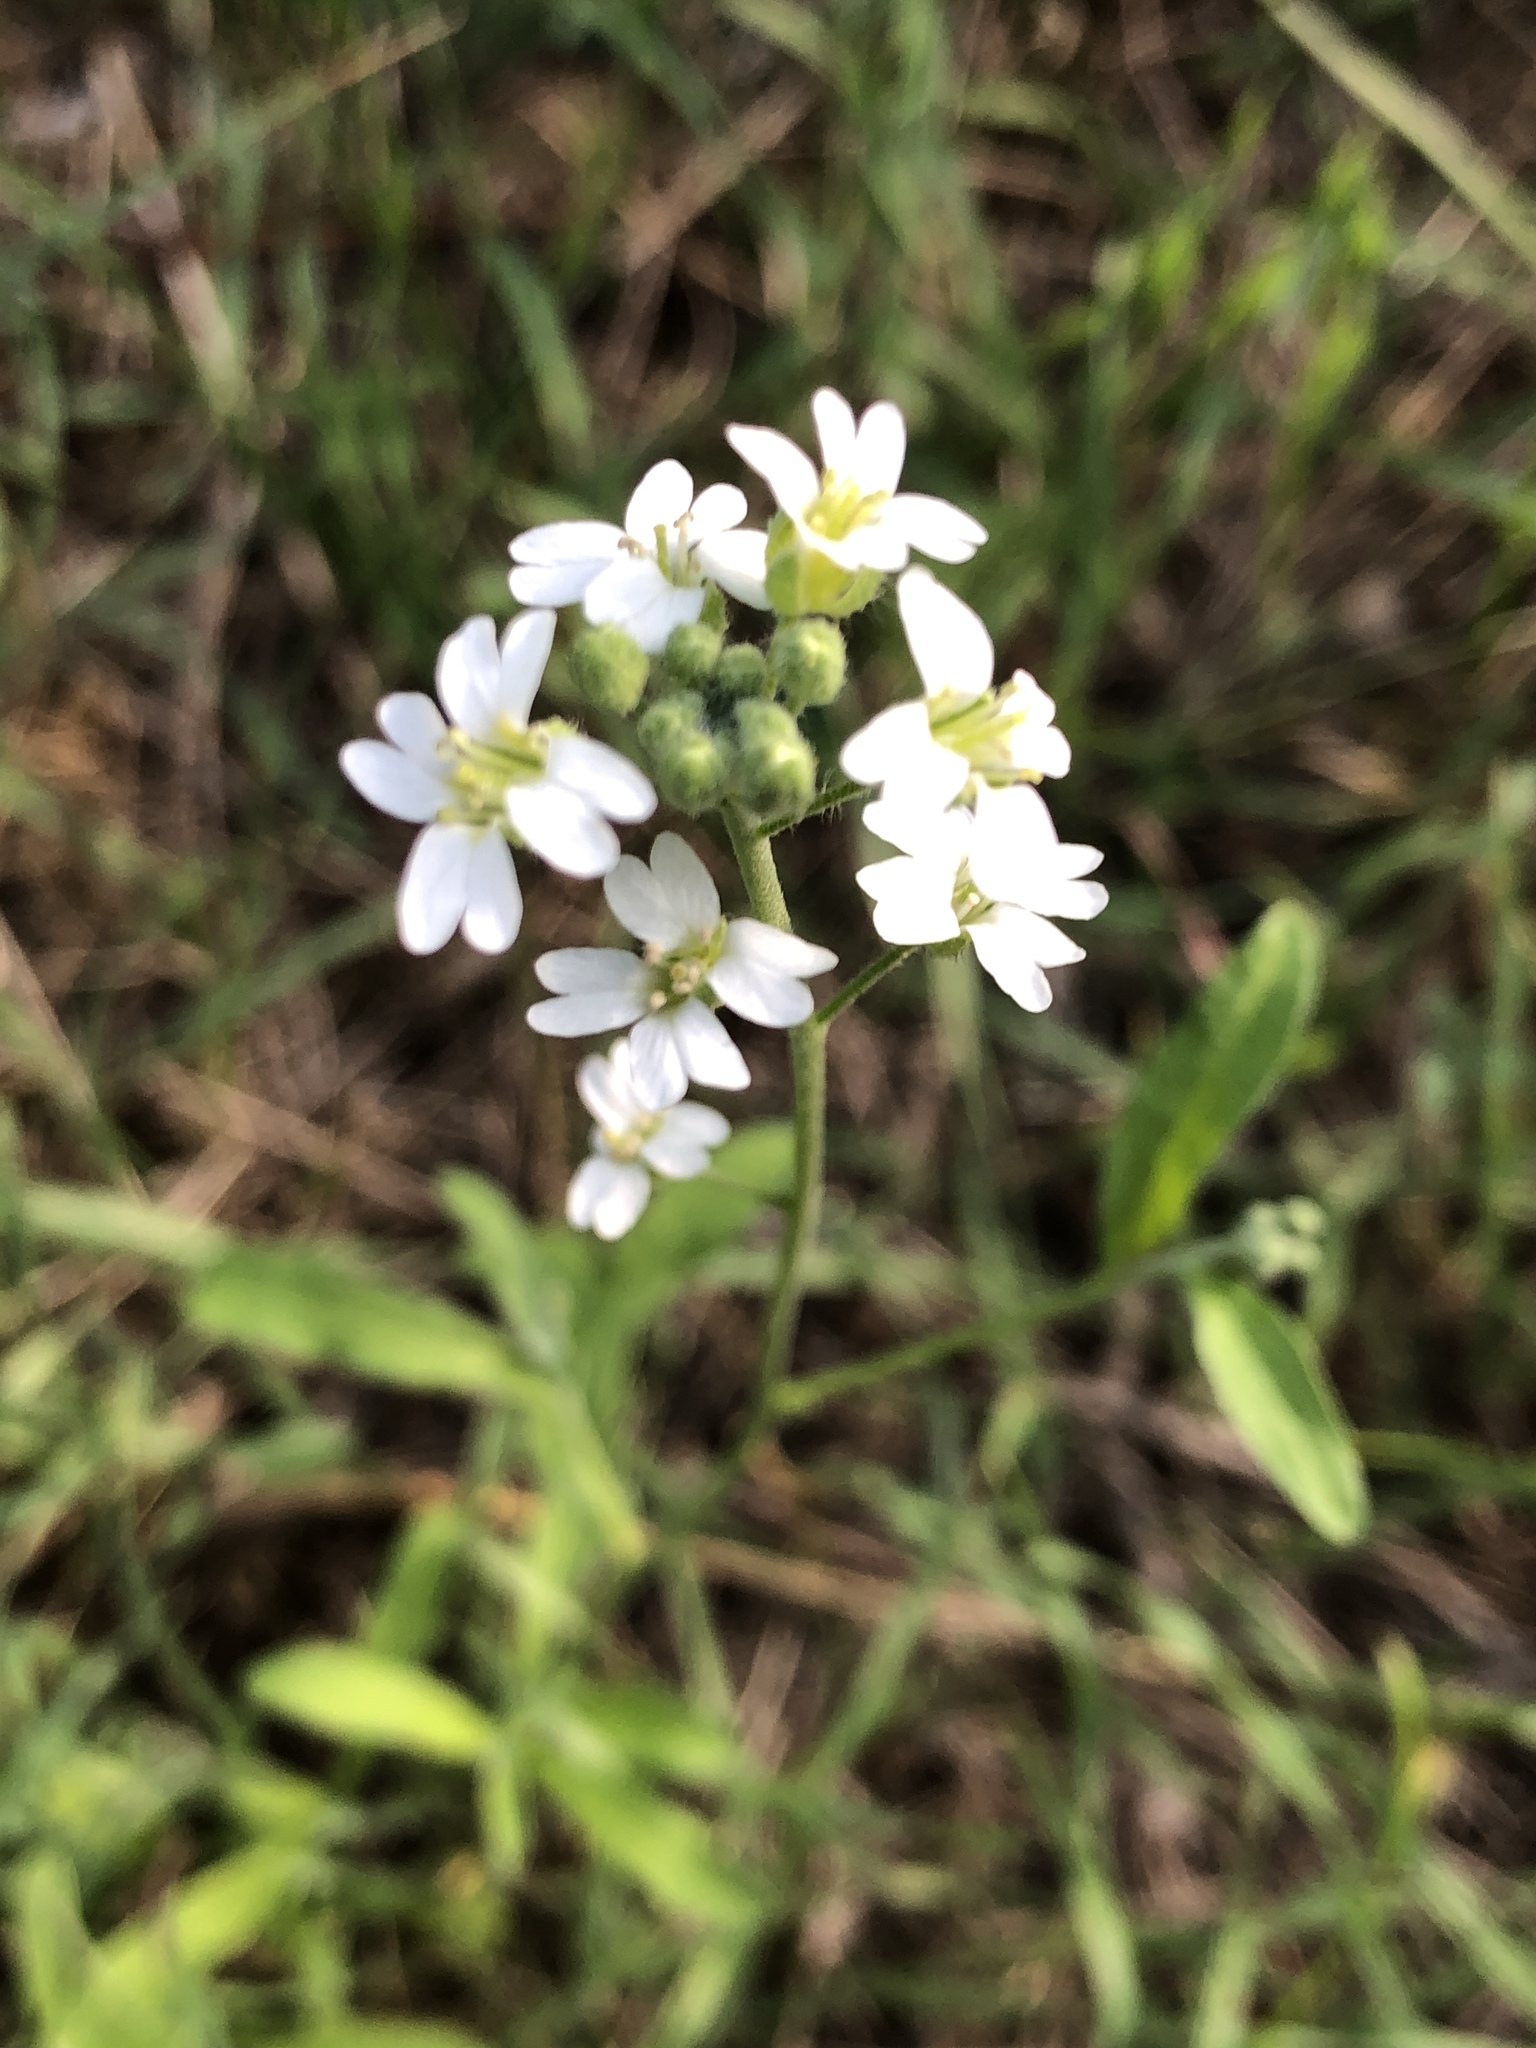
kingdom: Plantae
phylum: Tracheophyta
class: Magnoliopsida
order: Brassicales
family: Brassicaceae
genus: Berteroa
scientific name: Berteroa incana
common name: Hoary alison
